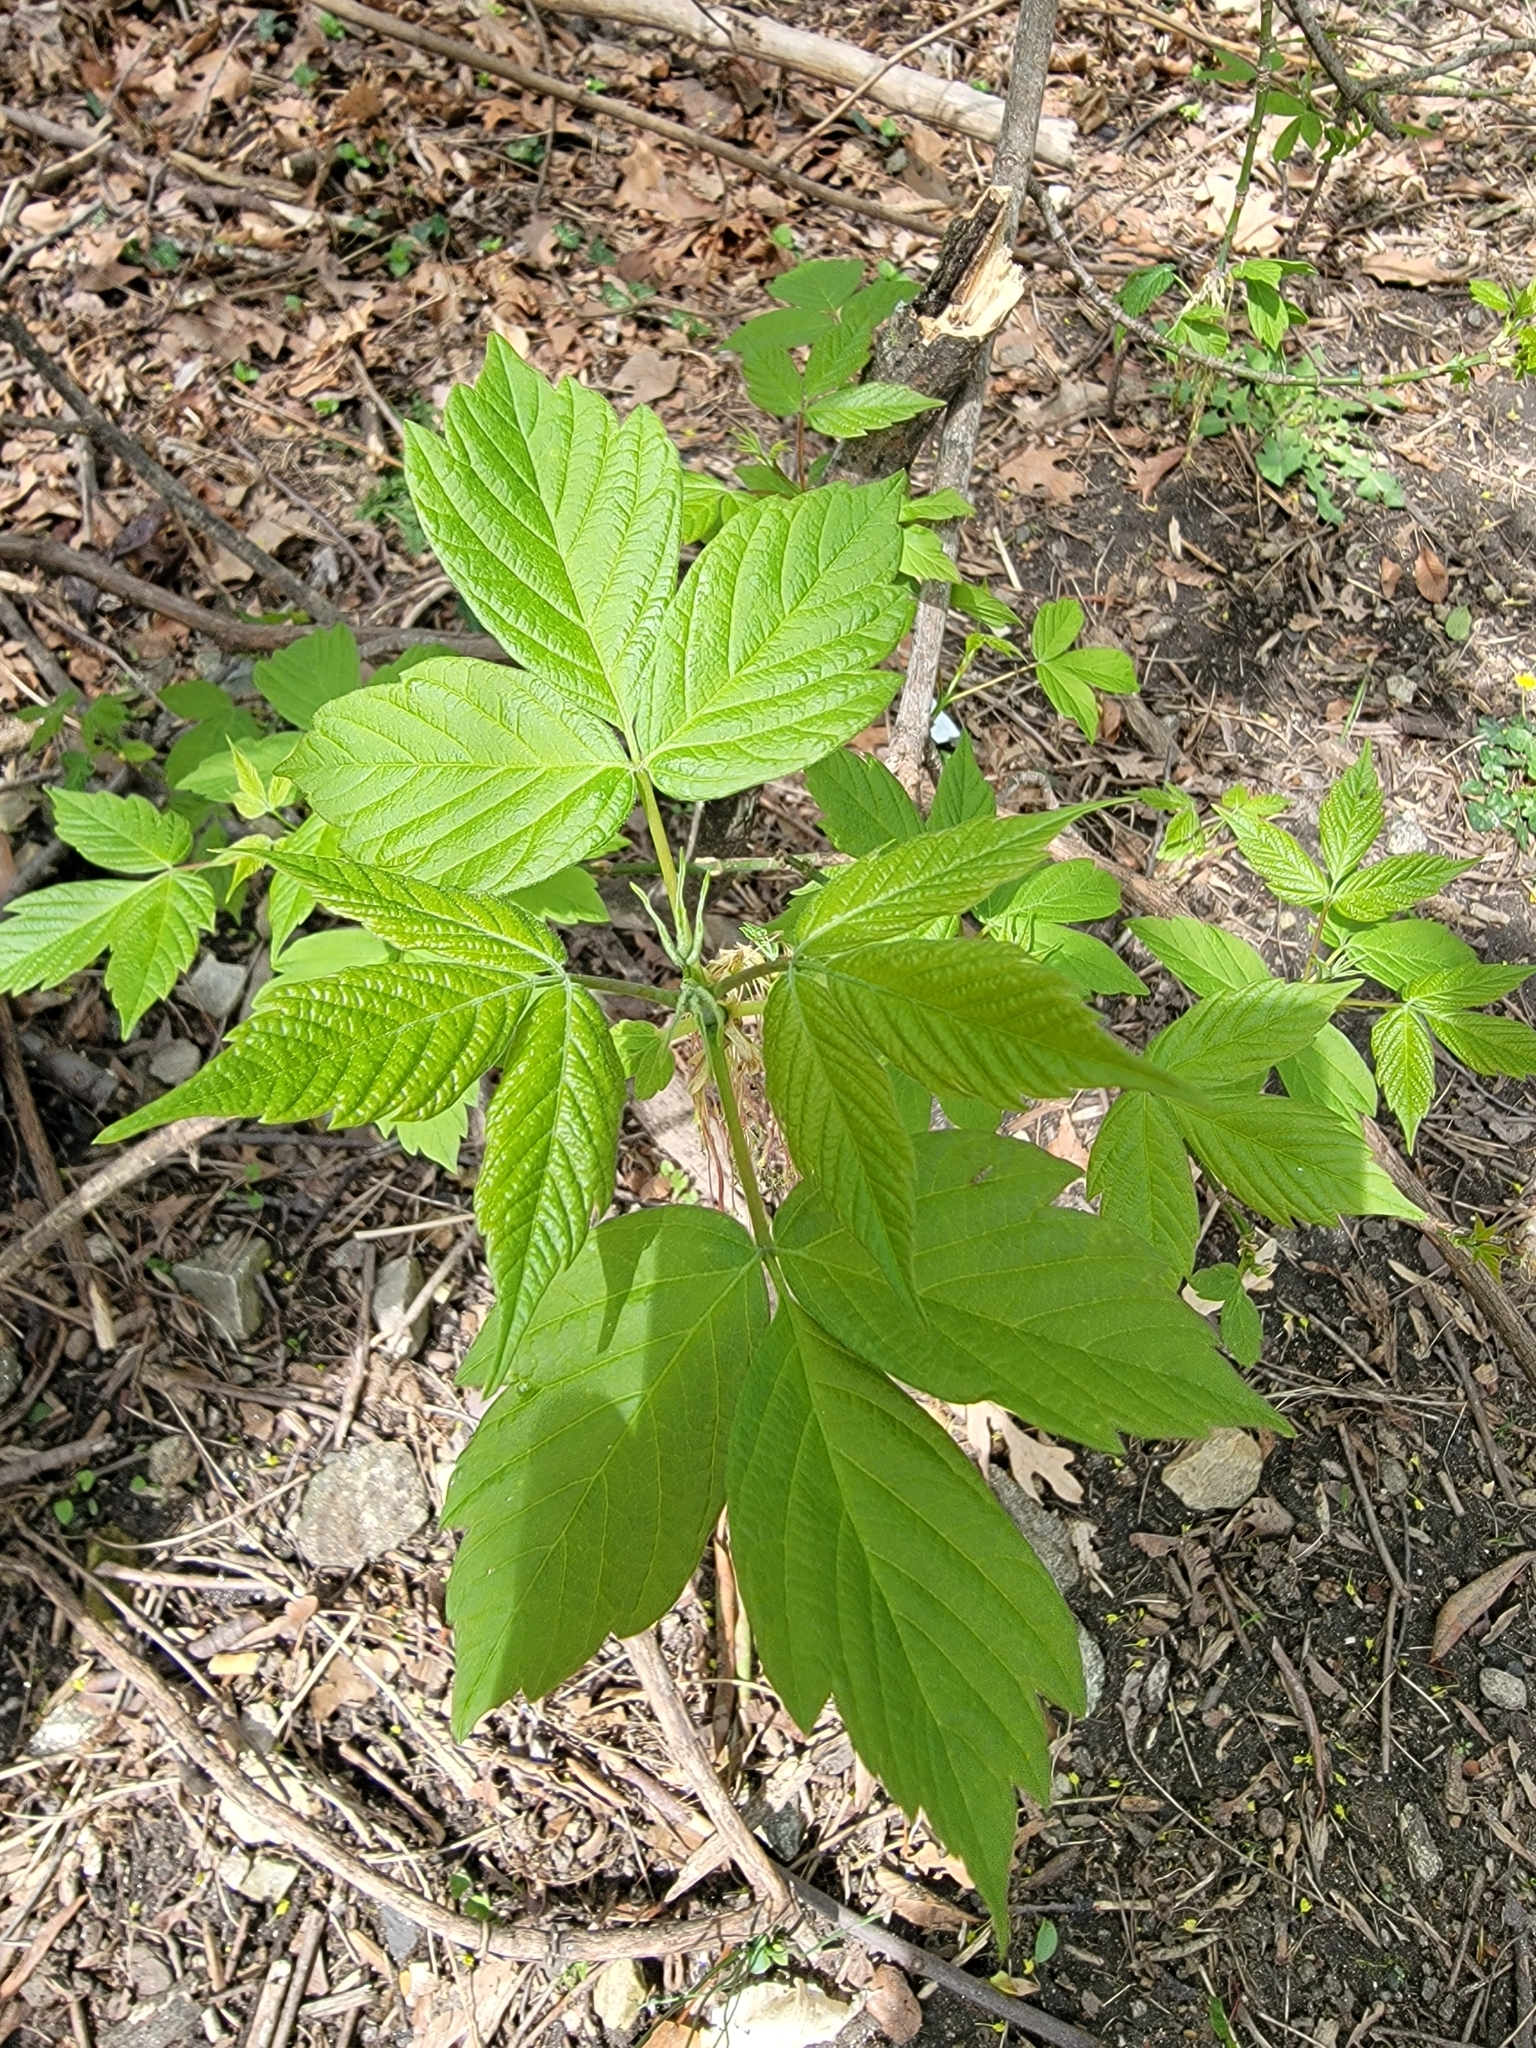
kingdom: Plantae
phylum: Tracheophyta
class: Magnoliopsida
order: Sapindales
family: Sapindaceae
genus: Acer
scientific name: Acer negundo
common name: Ashleaf maple
